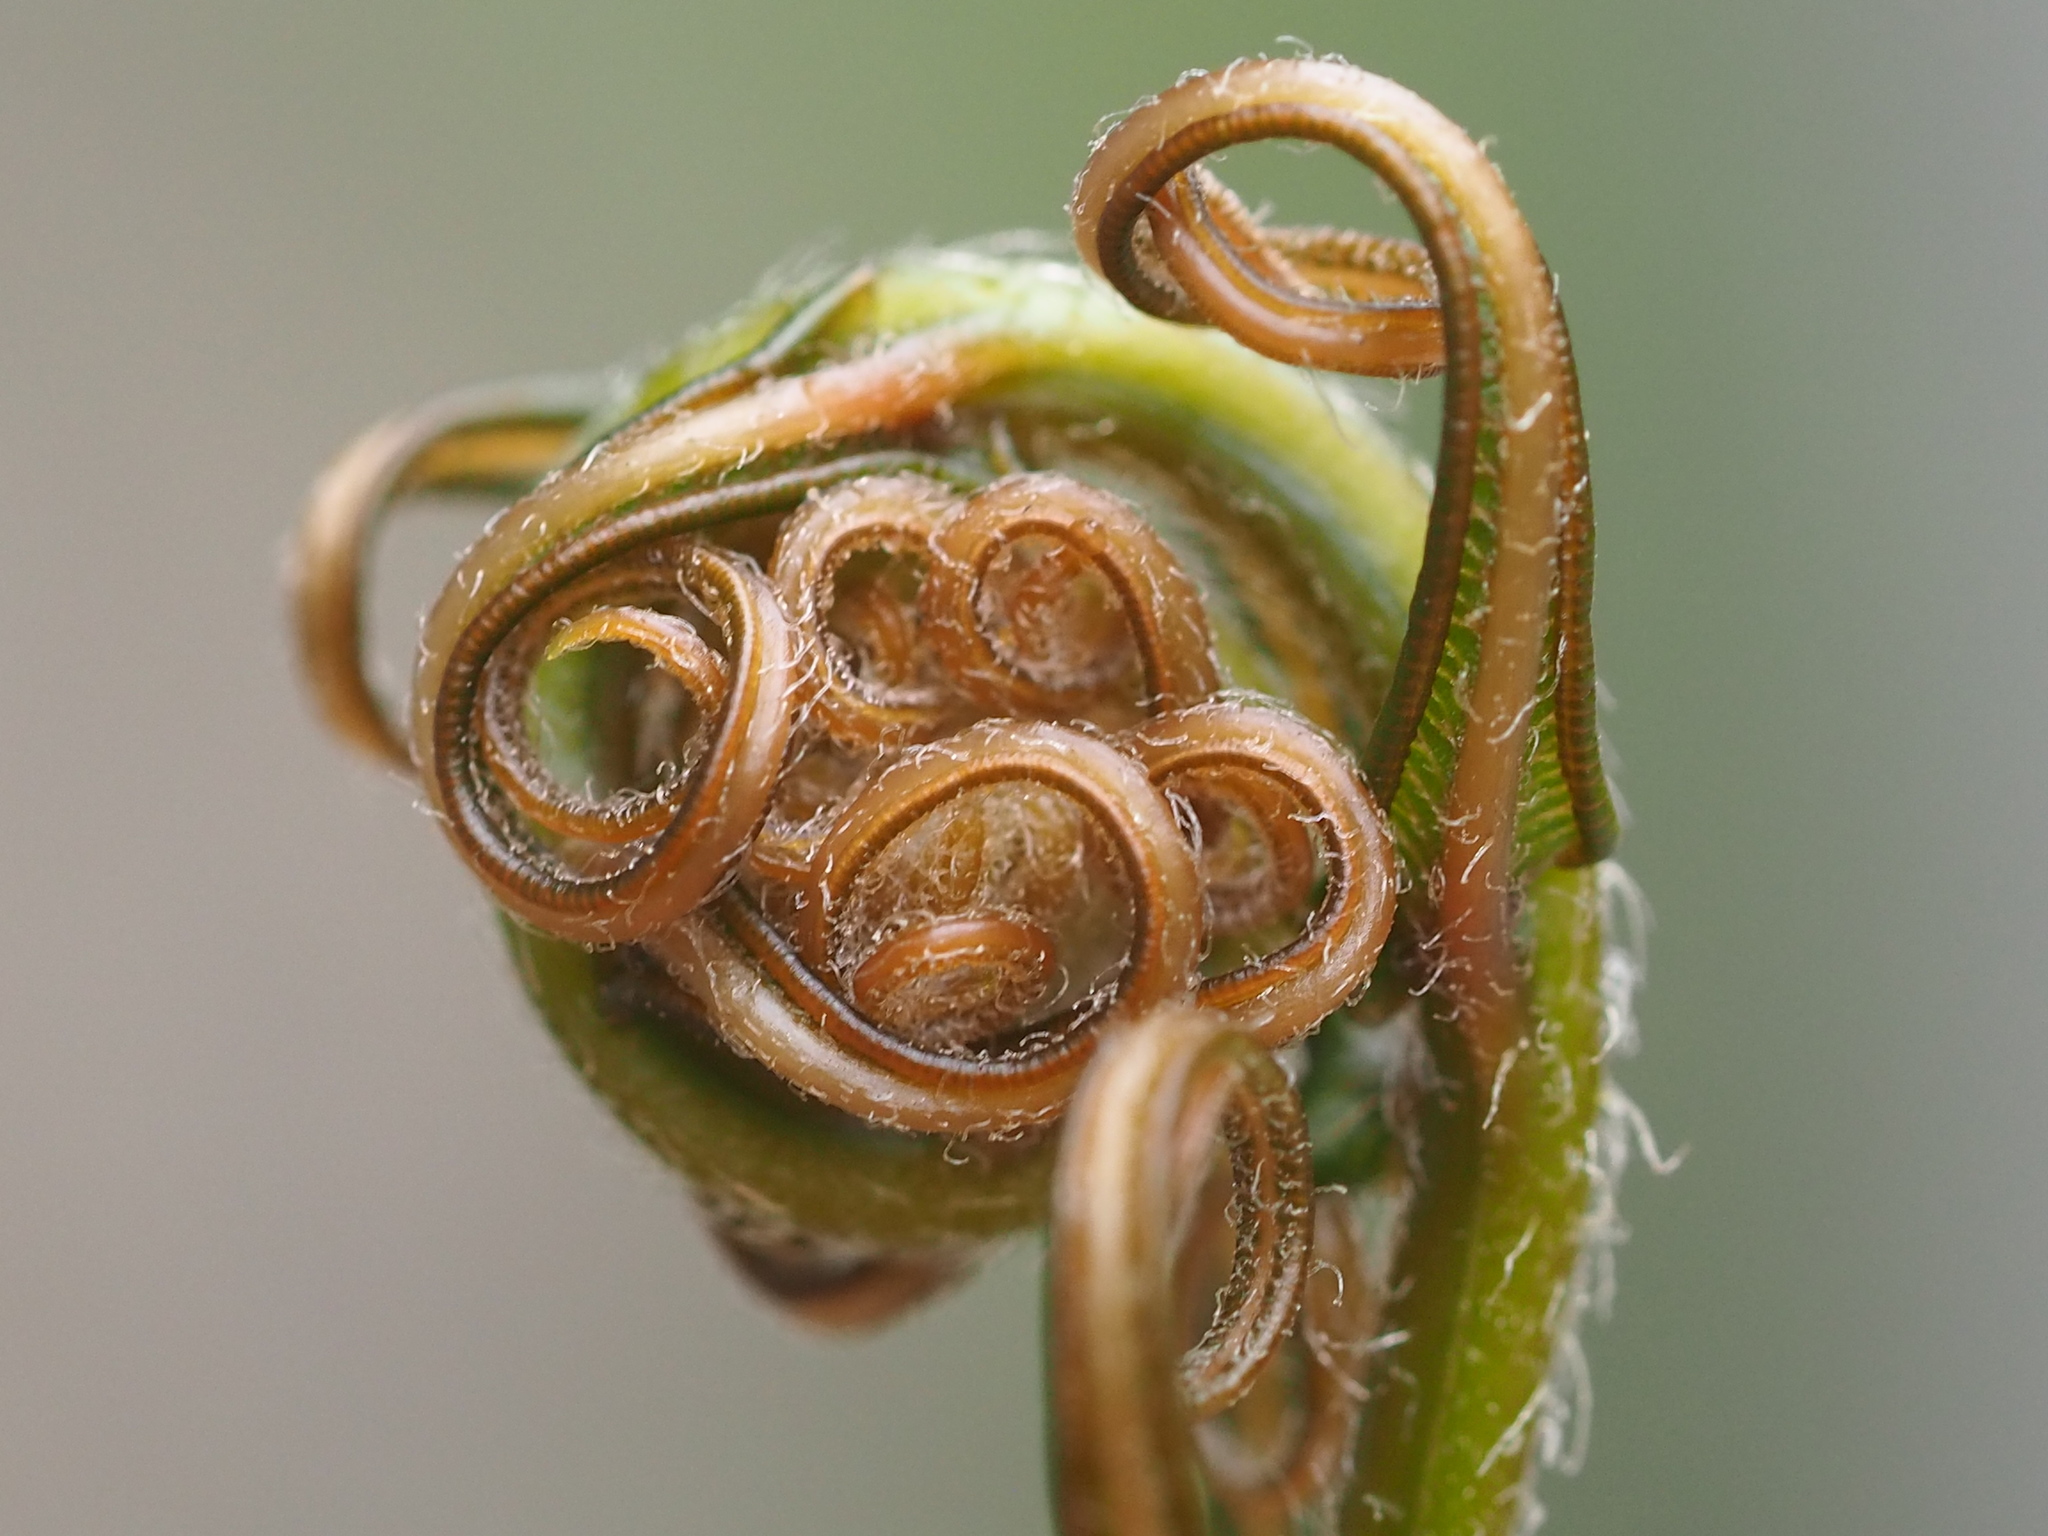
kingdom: Plantae
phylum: Tracheophyta
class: Polypodiopsida
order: Polypodiales
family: Pteridaceae
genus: Pteris
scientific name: Pteris vittata
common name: Ladder brake
